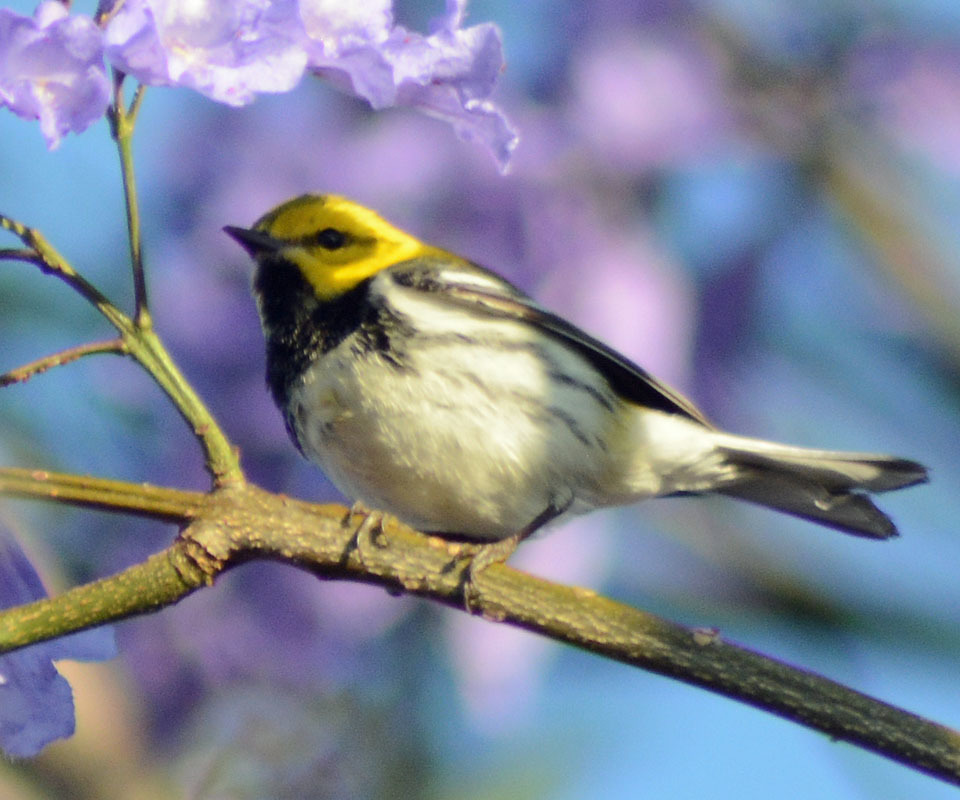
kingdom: Animalia
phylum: Chordata
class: Aves
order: Passeriformes
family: Parulidae
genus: Setophaga
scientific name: Setophaga virens
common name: Black-throated green warbler
